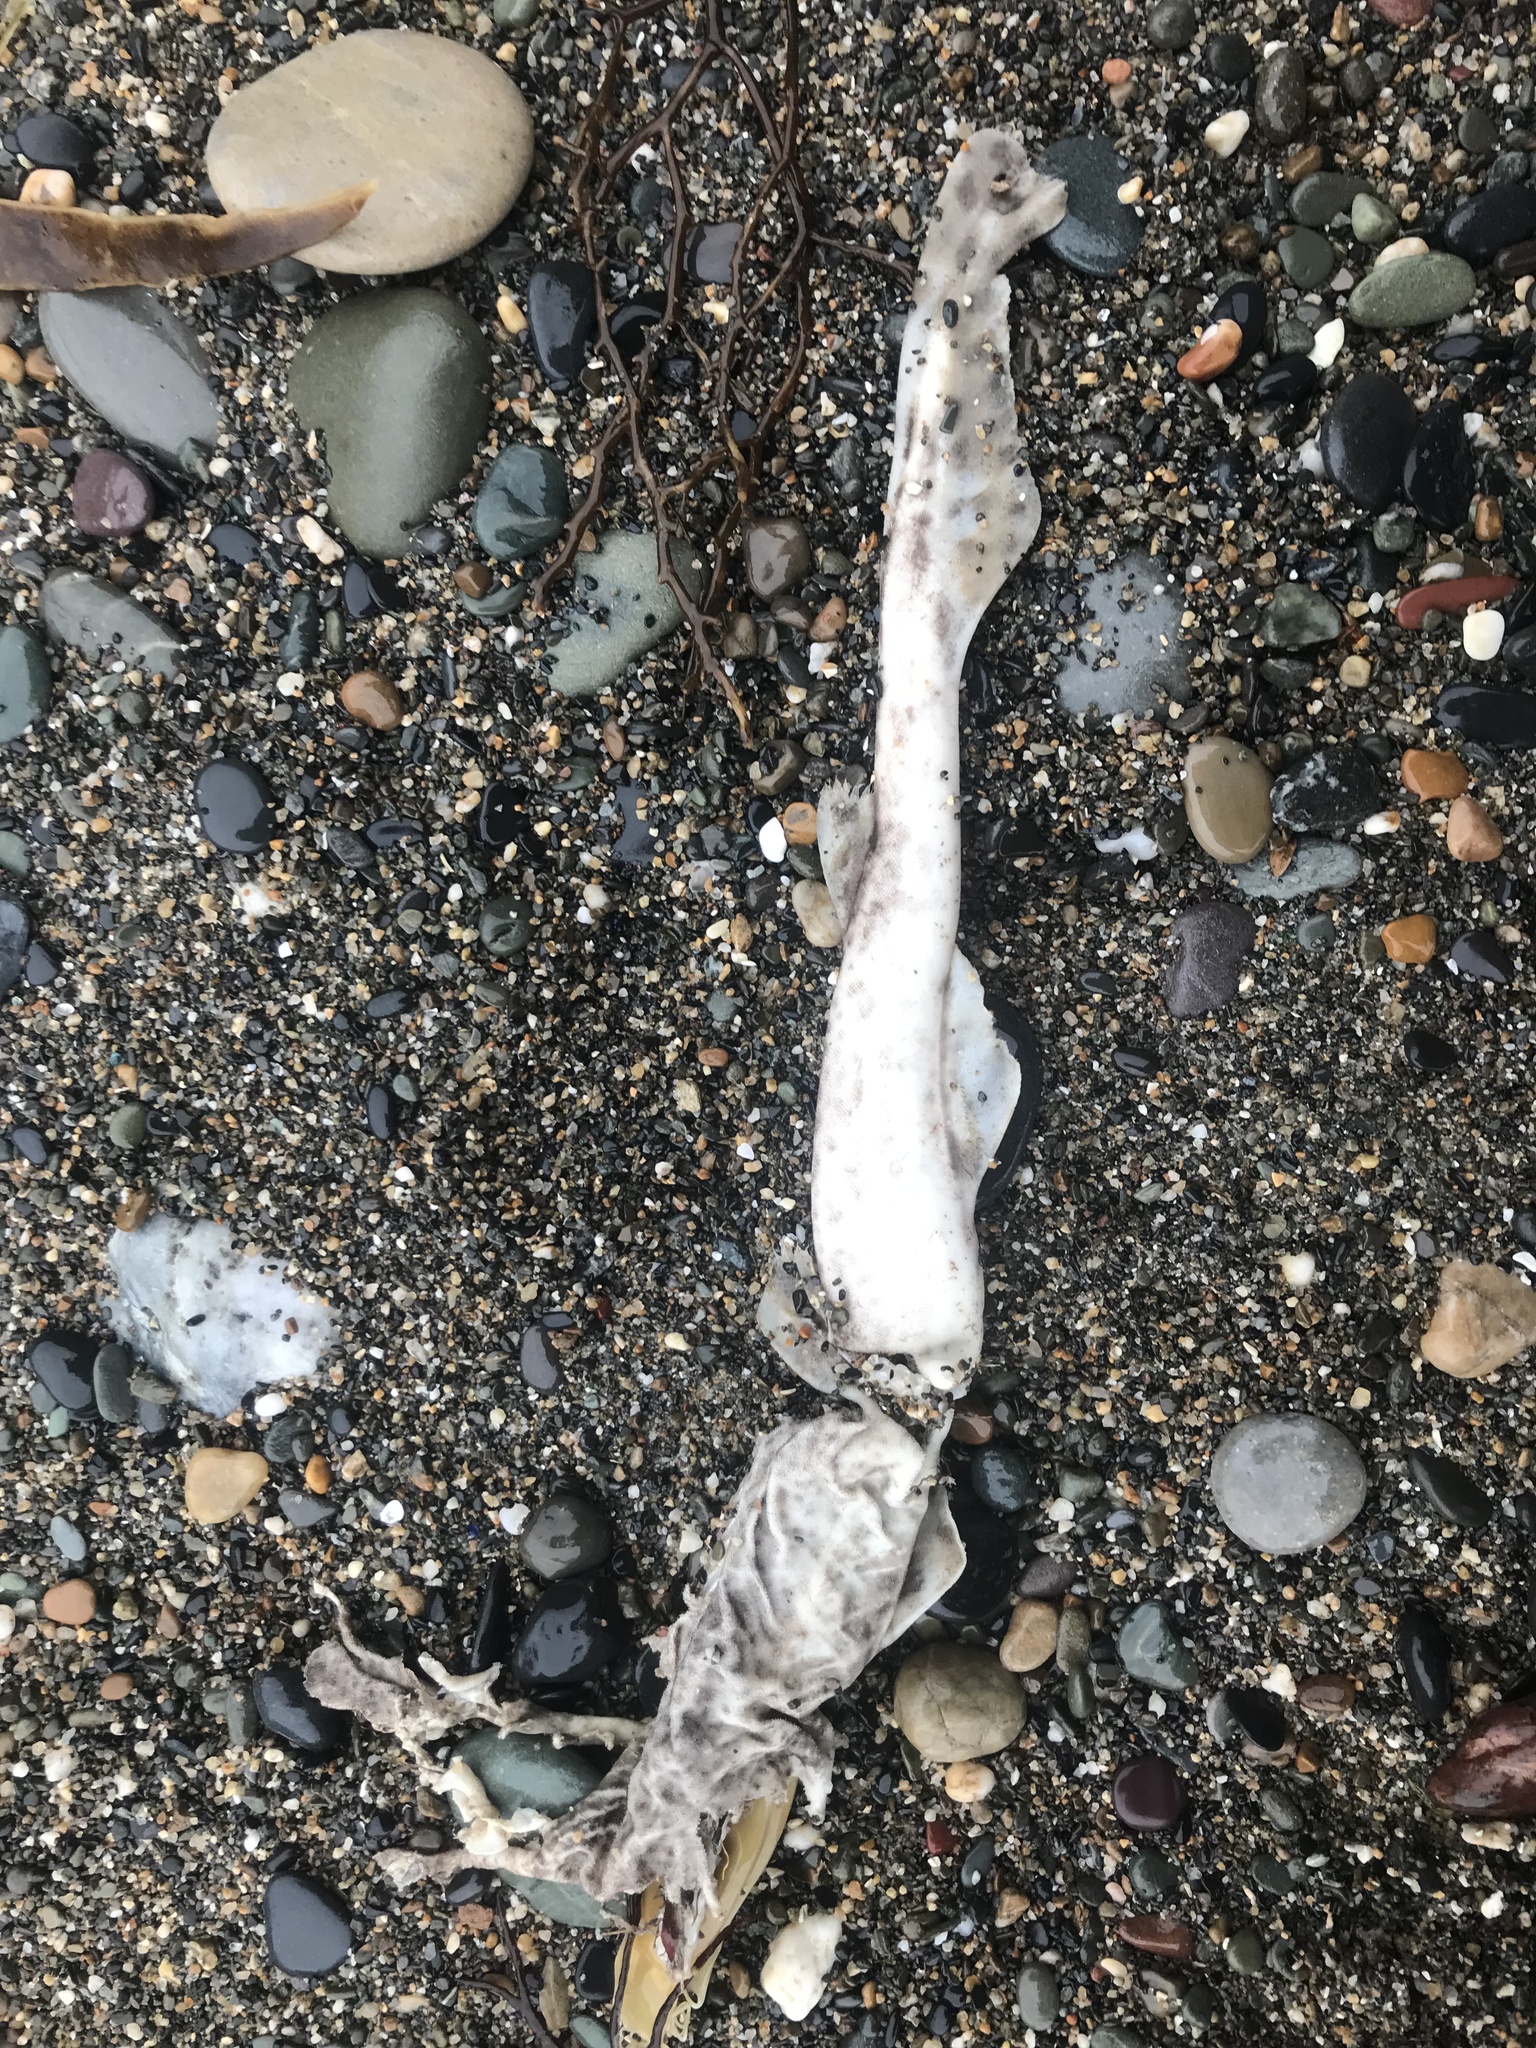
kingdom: Animalia
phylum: Chordata
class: Elasmobranchii
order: Carcharhiniformes
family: Scyliorhinidae
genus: Scyliorhinus
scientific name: Scyliorhinus canicula
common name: Lesser spotted dogfish
